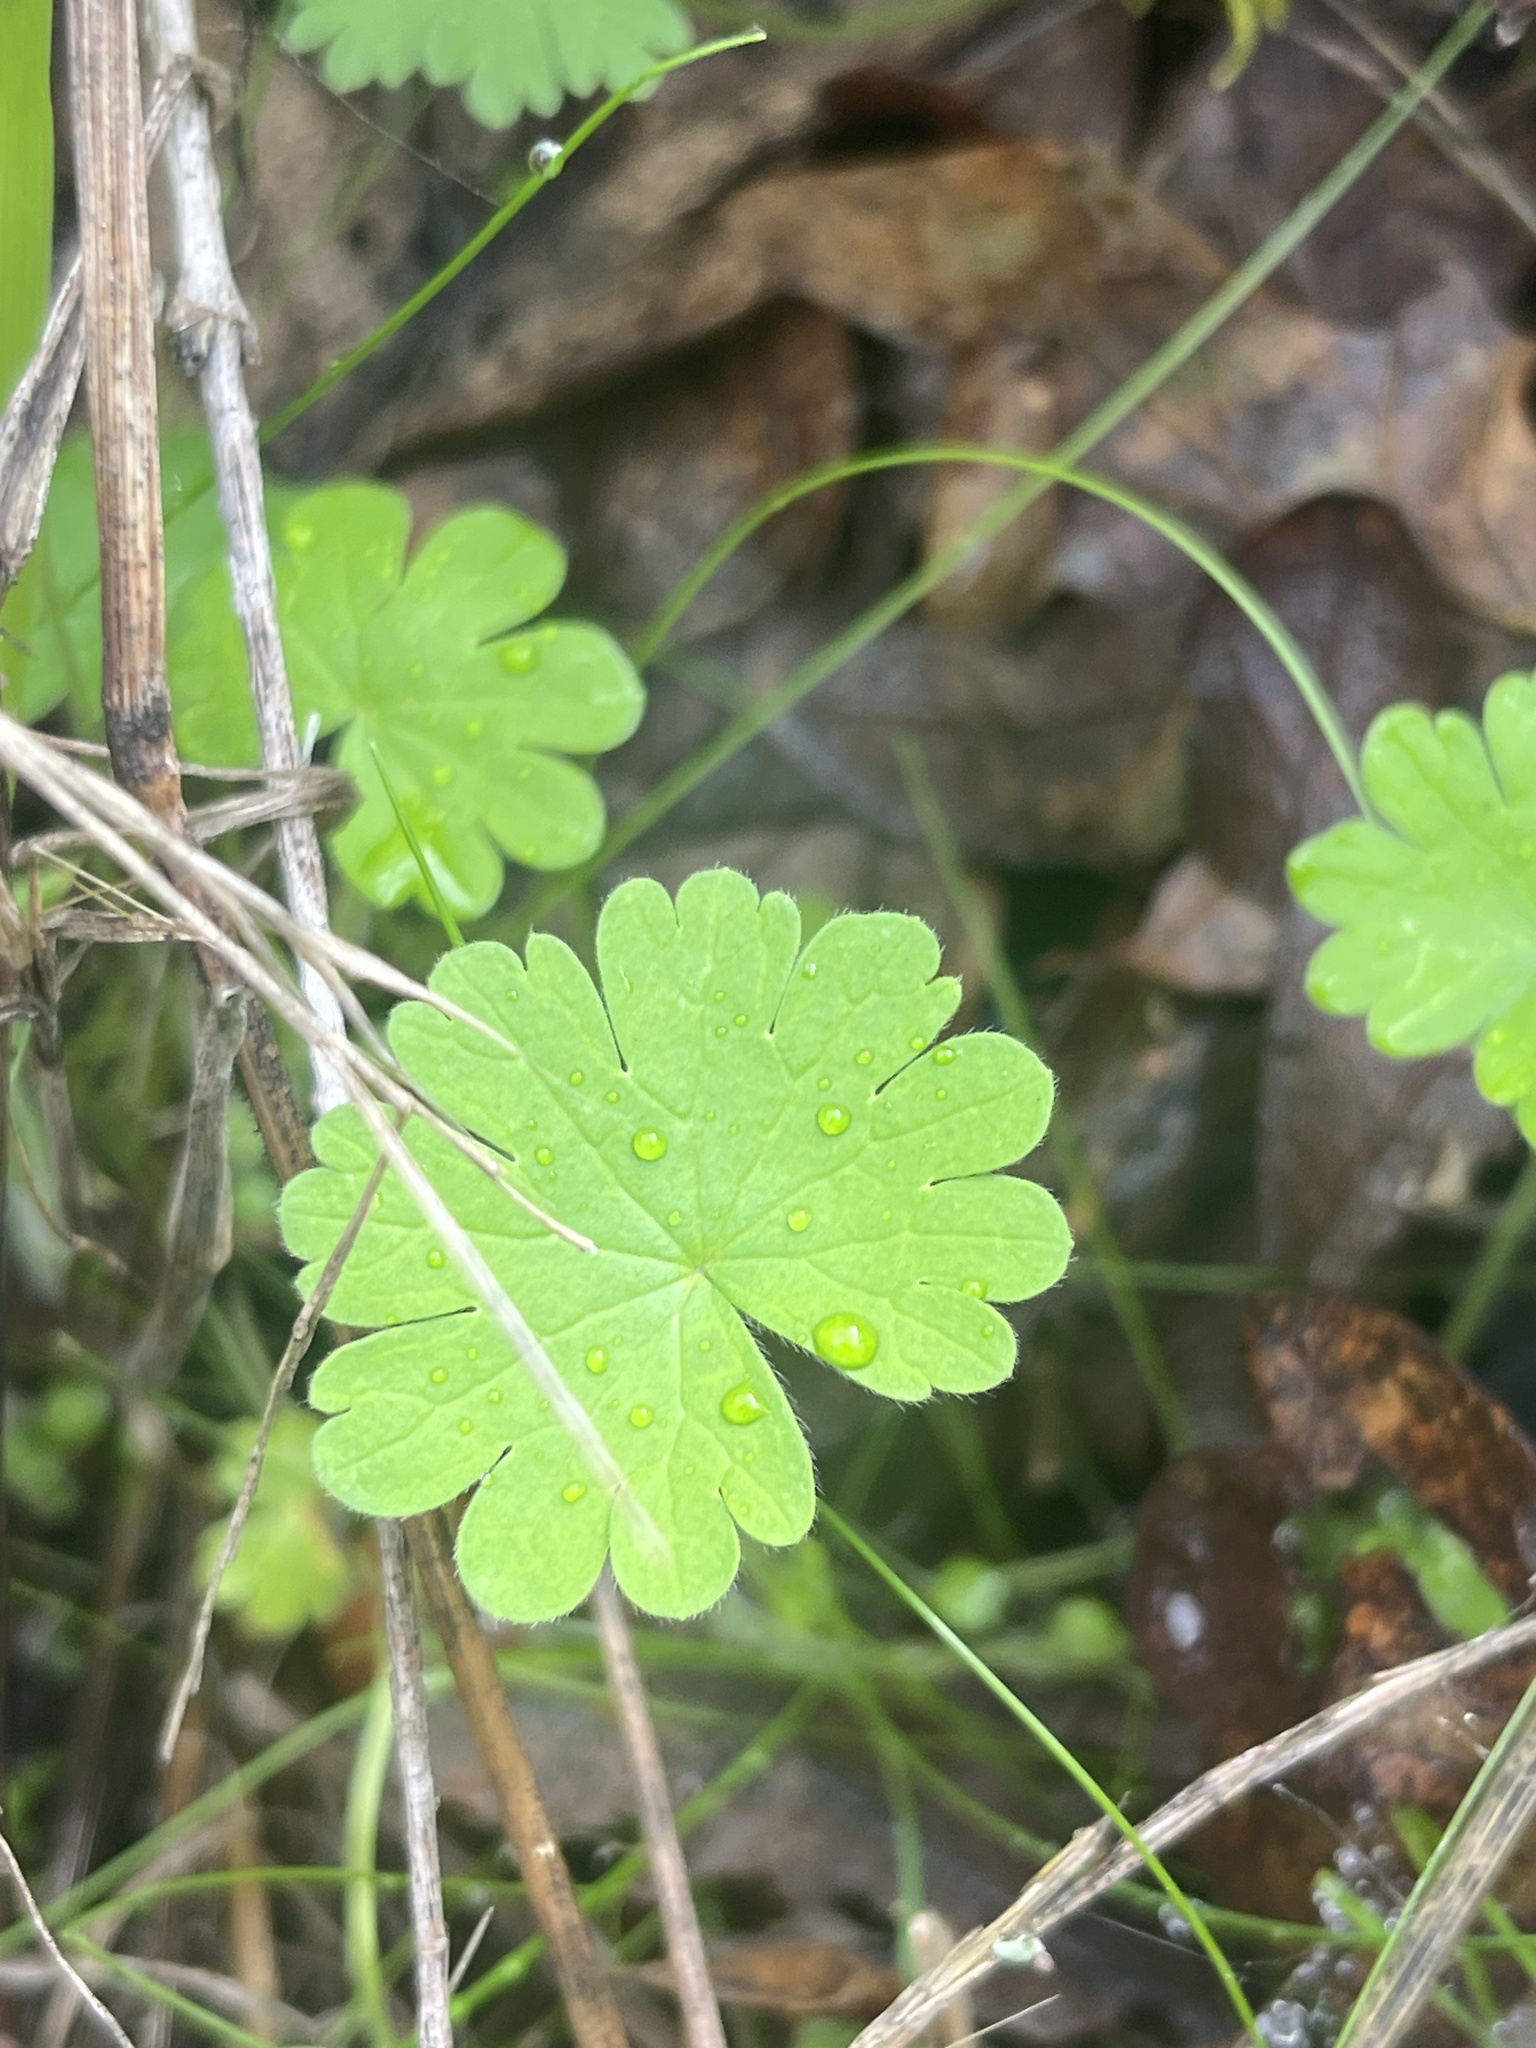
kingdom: Plantae
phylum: Tracheophyta
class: Magnoliopsida
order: Geraniales
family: Geraniaceae
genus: Geranium
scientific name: Geranium molle
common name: Dove's-foot crane's-bill
